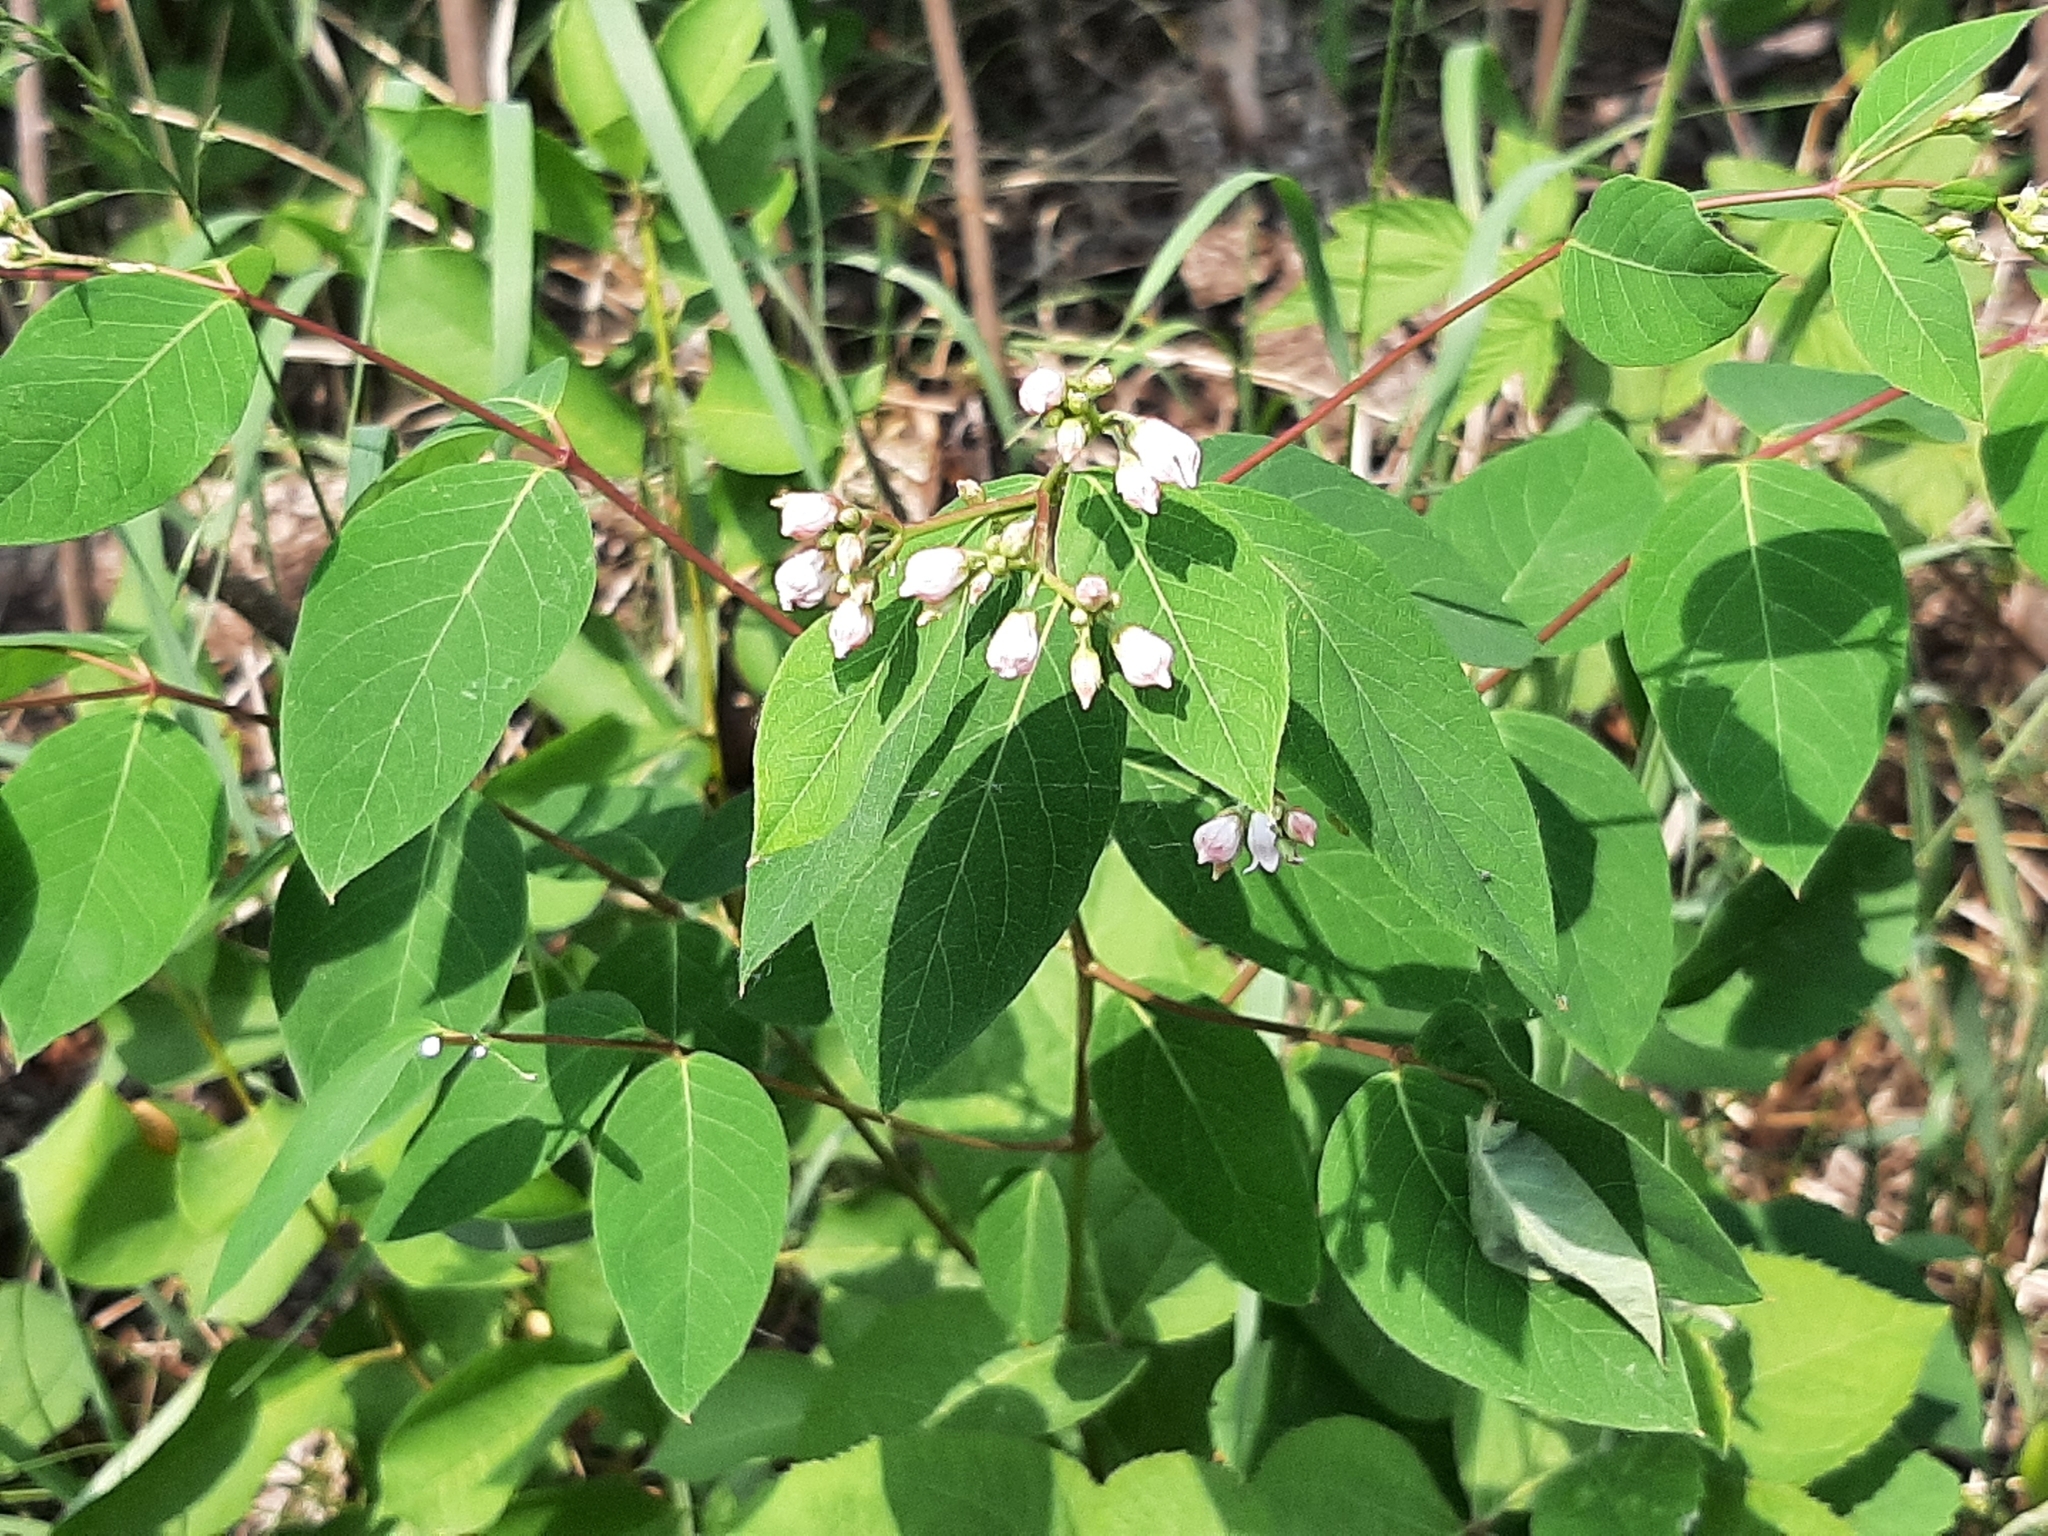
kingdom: Plantae
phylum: Tracheophyta
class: Magnoliopsida
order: Gentianales
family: Apocynaceae
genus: Apocynum
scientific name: Apocynum androsaemifolium
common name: Spreading dogbane
